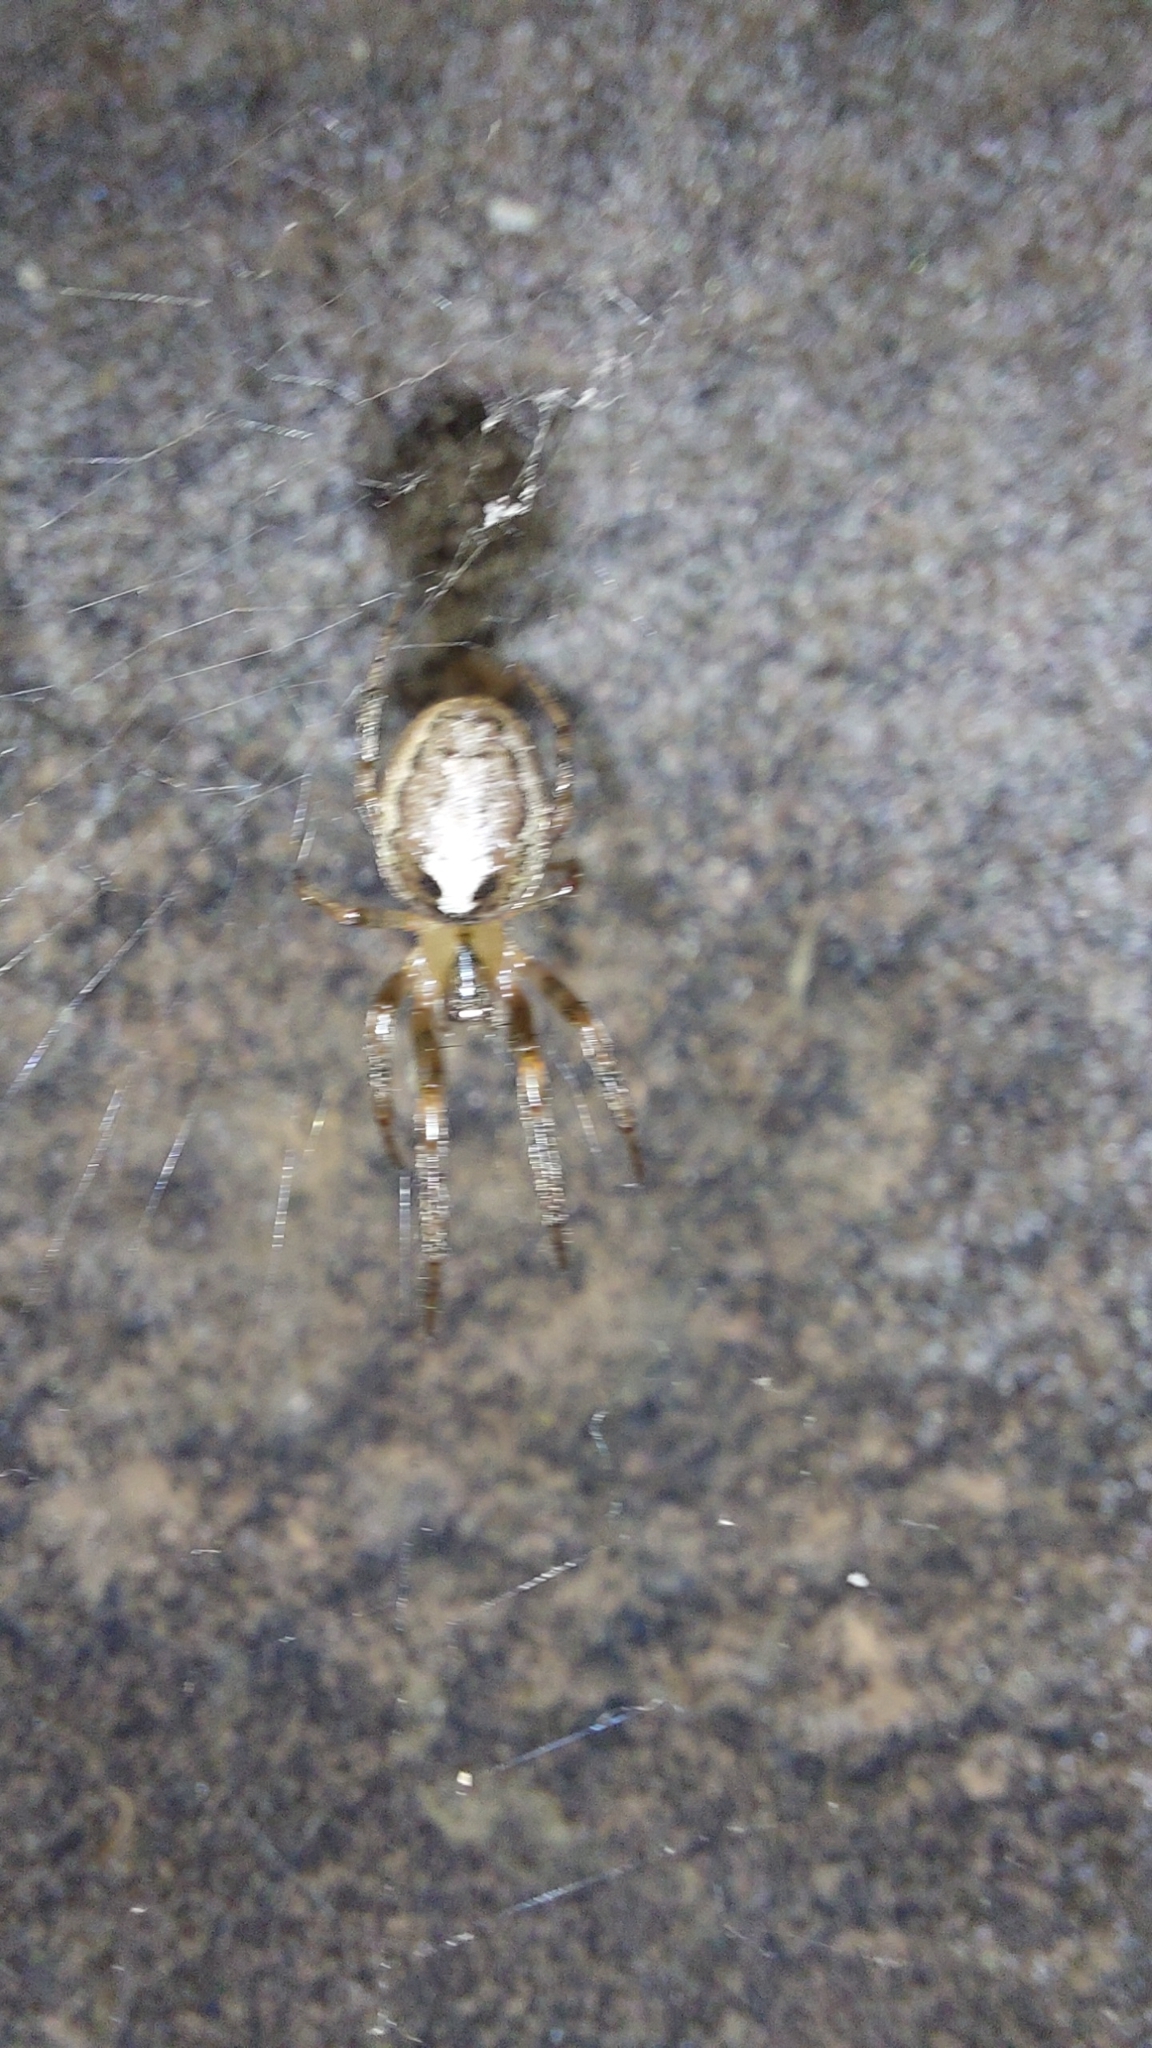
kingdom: Animalia
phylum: Arthropoda
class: Arachnida
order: Araneae
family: Araneidae
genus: Zygiella
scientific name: Zygiella x-notata
